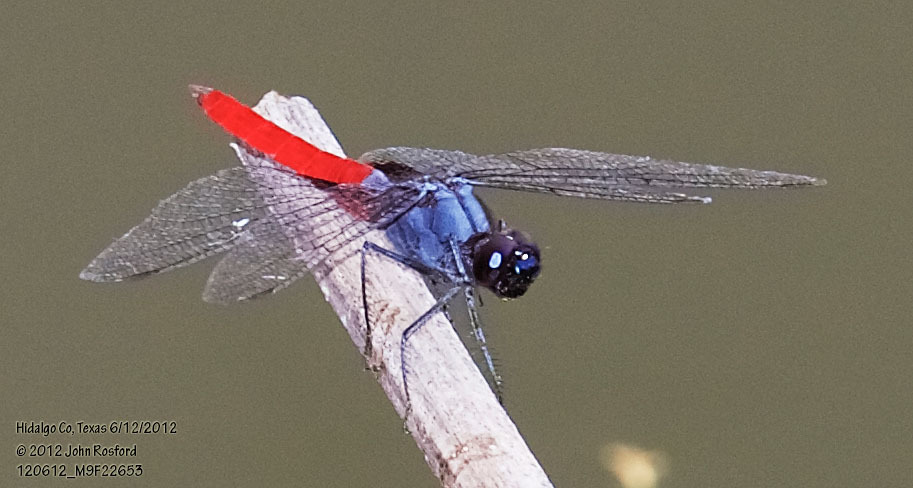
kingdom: Animalia
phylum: Arthropoda
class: Insecta
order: Odonata
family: Libellulidae
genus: Planiplax
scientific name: Planiplax sanguiniventris
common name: Mexican scarlet-tail
